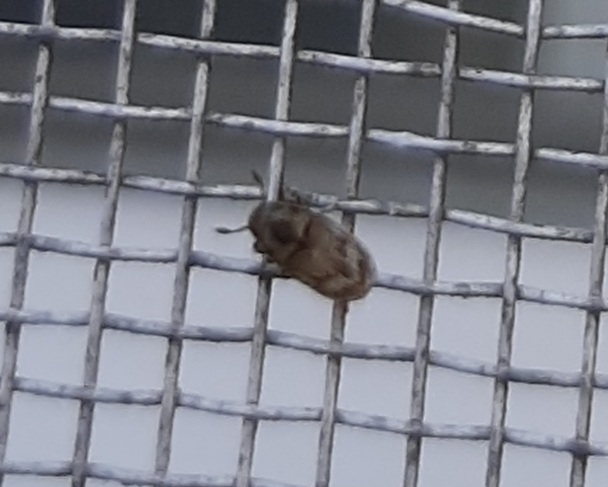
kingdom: Animalia
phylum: Arthropoda
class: Insecta
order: Coleoptera
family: Curculionidae
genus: Hylesinus
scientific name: Hylesinus aculeatus
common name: Easter-ash bark beetle
